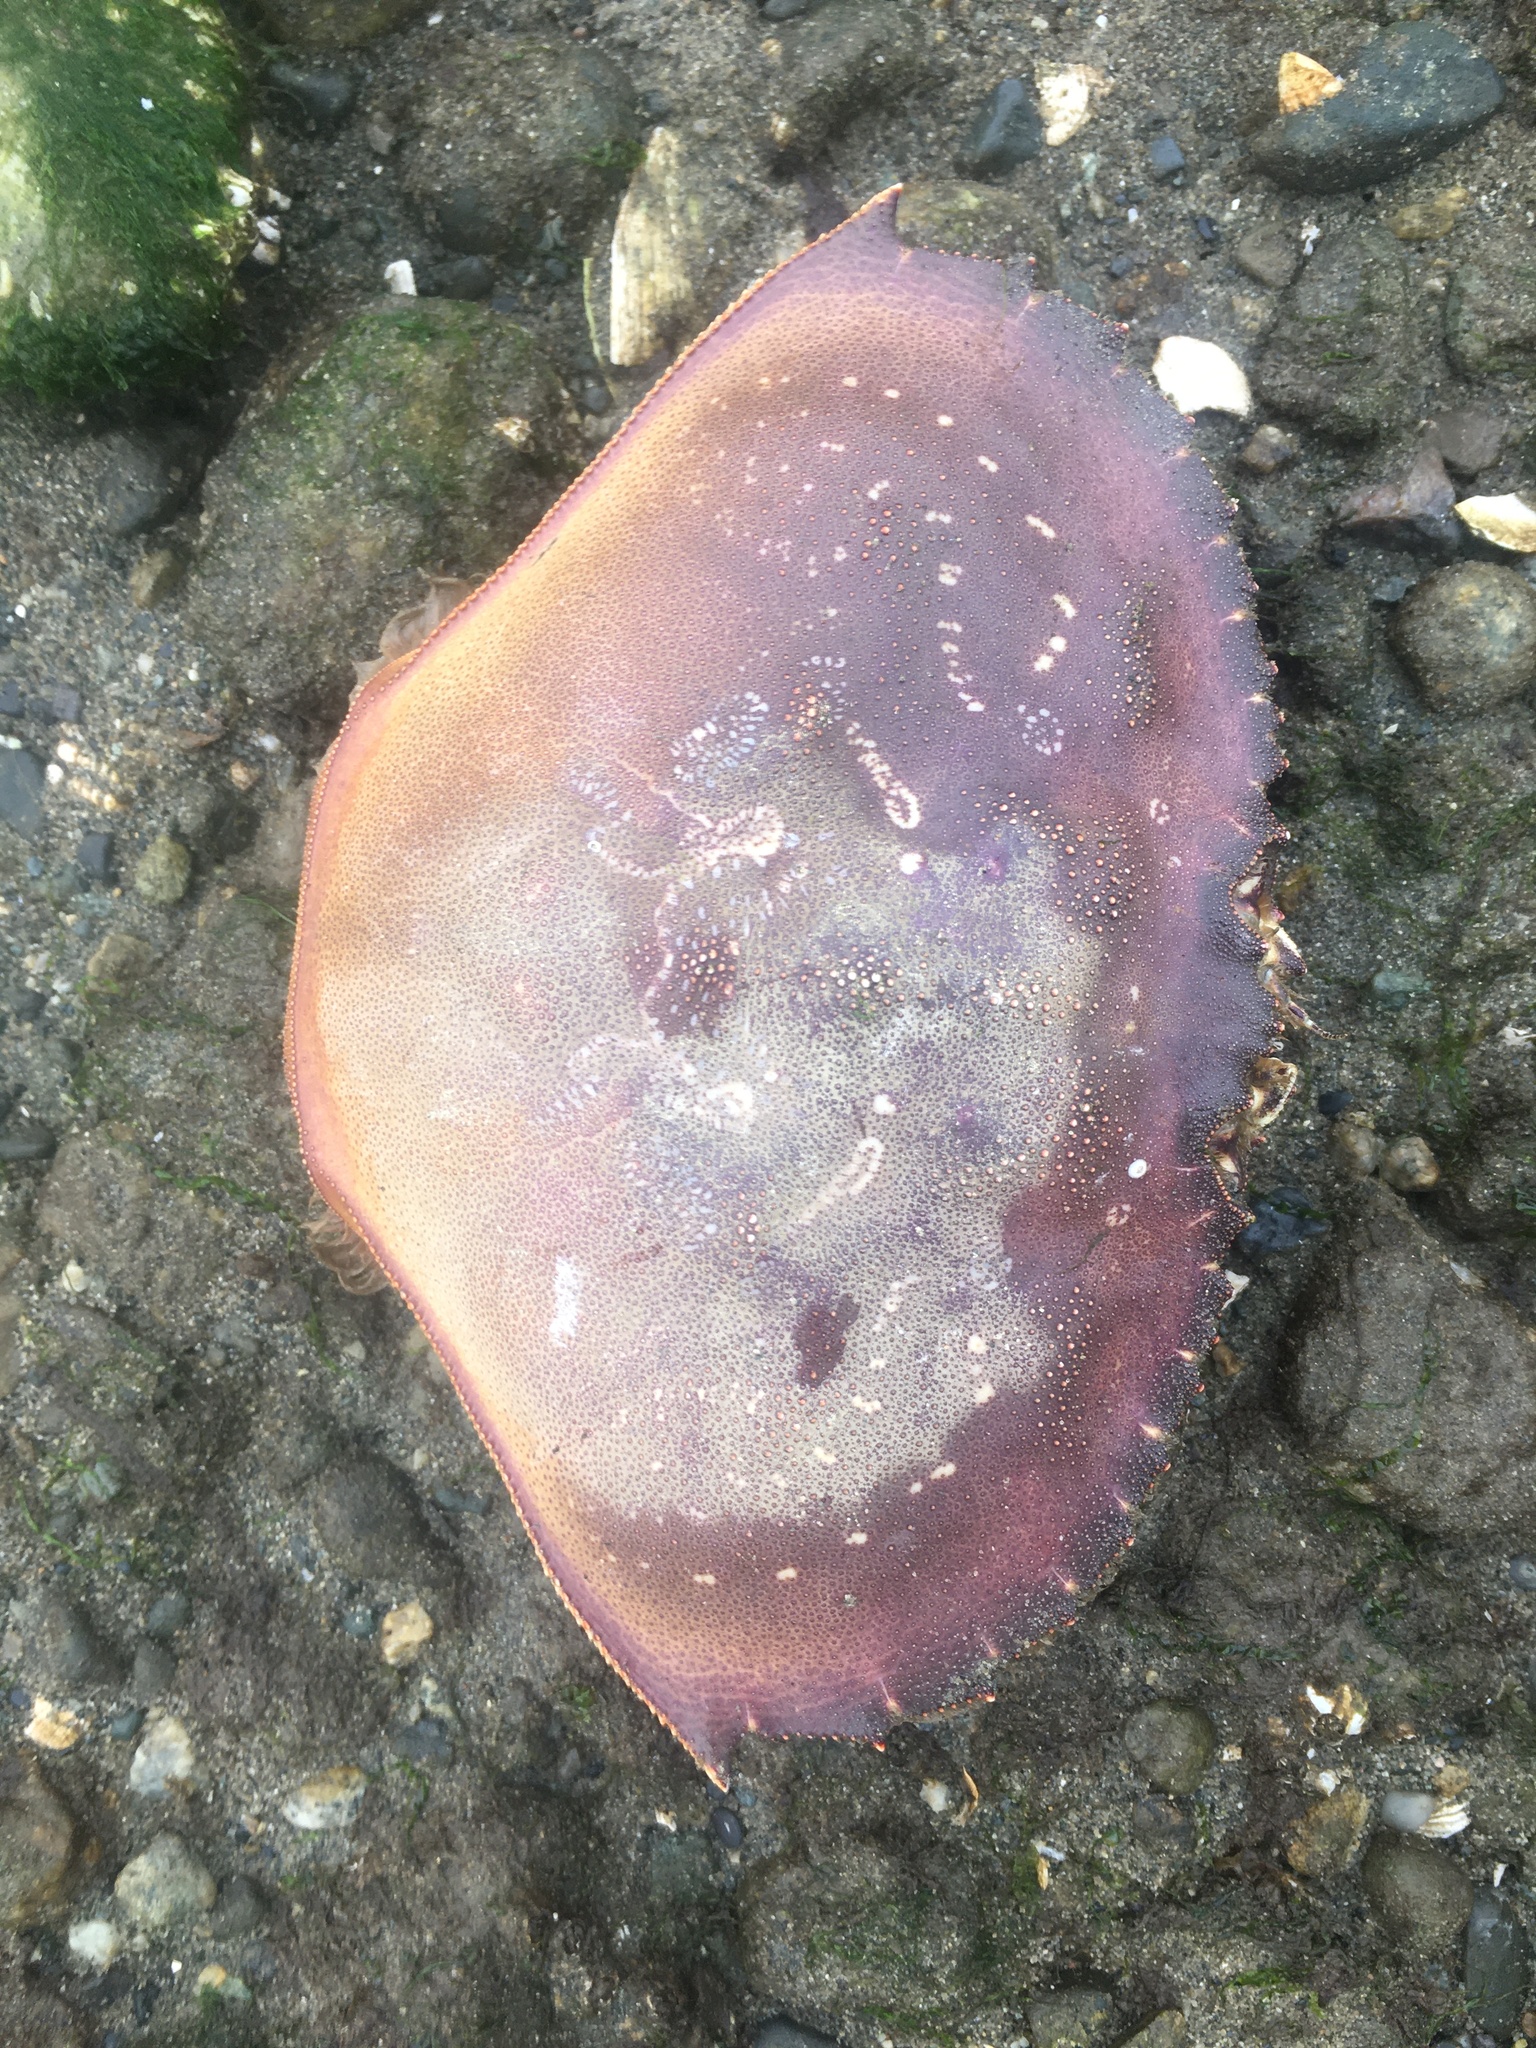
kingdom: Animalia
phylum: Arthropoda
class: Malacostraca
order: Decapoda
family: Cancridae
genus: Metacarcinus
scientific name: Metacarcinus magister
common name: Californian crab
